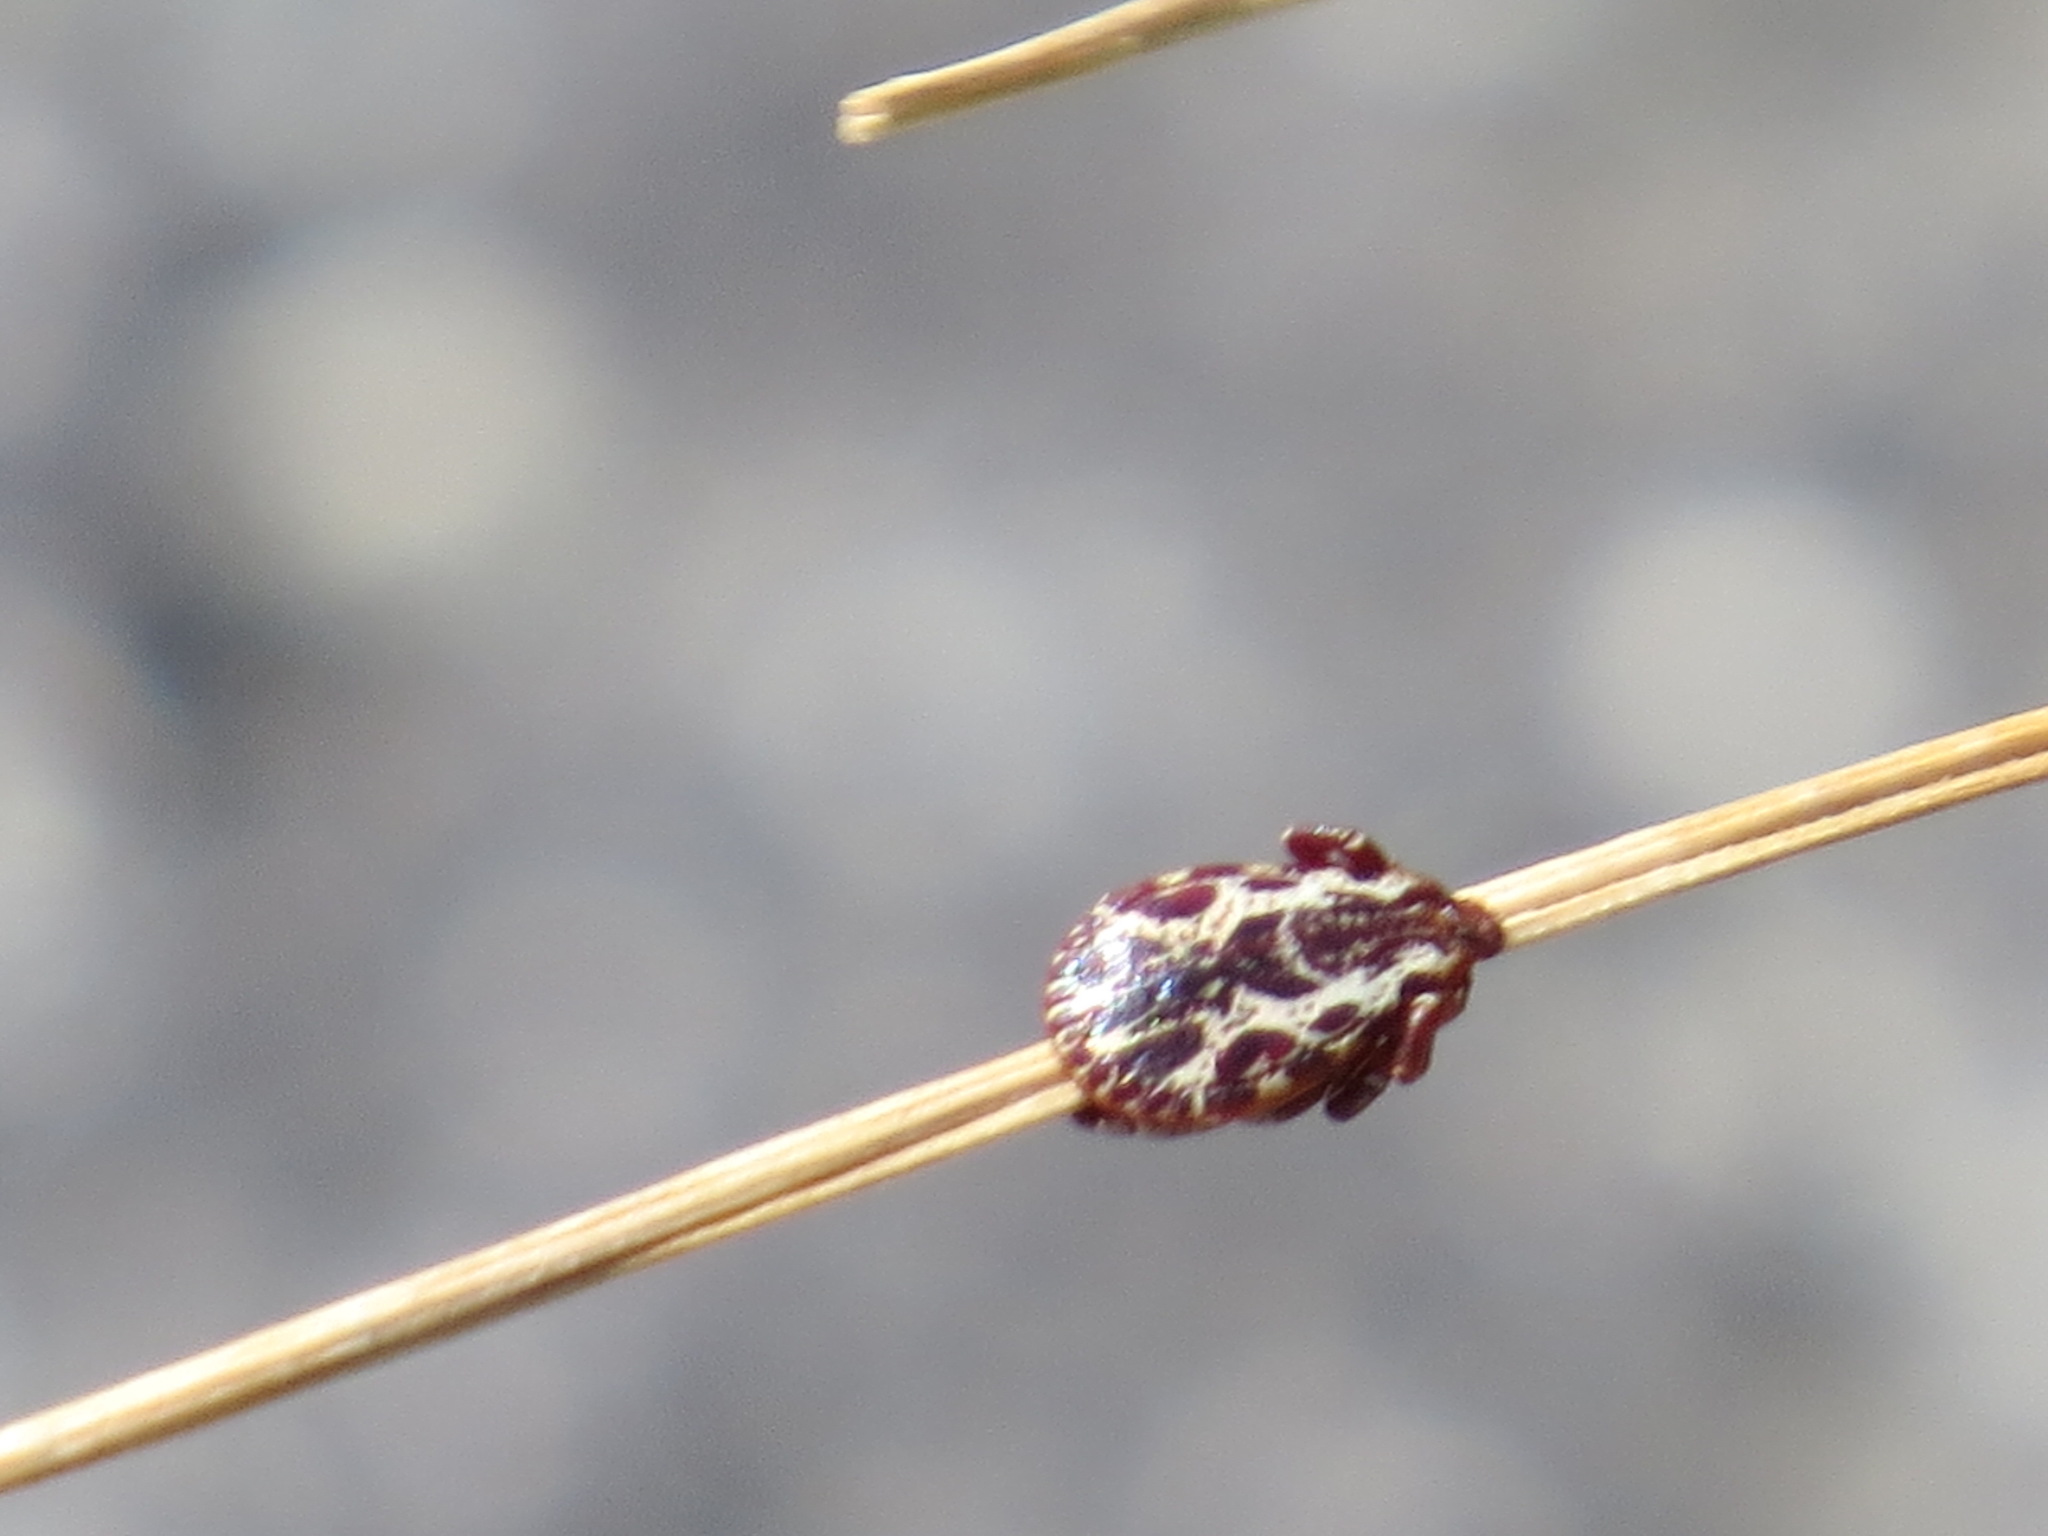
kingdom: Animalia
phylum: Arthropoda
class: Arachnida
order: Ixodida
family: Ixodidae
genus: Dermacentor
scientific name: Dermacentor variabilis
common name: American dog tick
